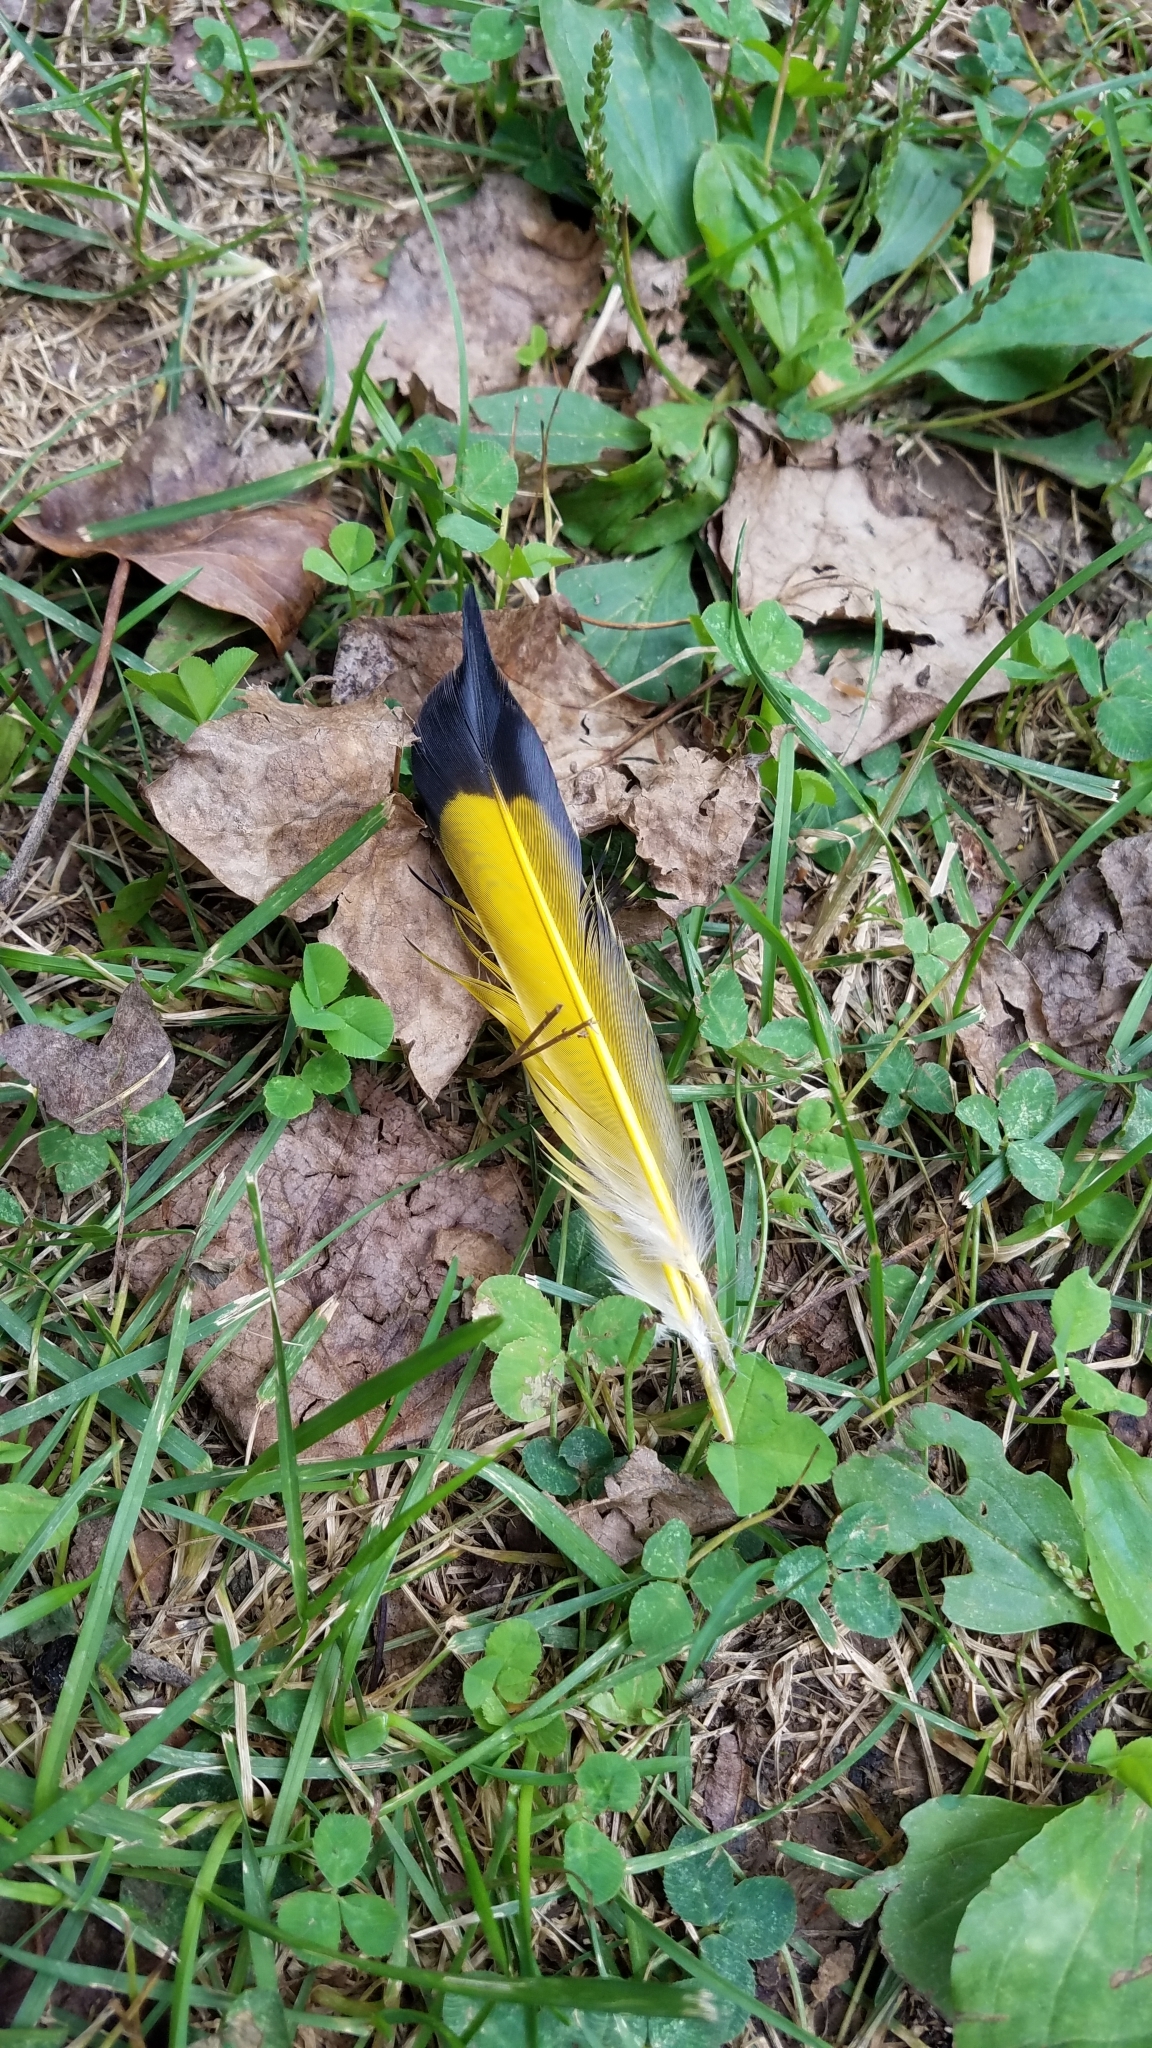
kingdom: Animalia
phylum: Chordata
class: Aves
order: Piciformes
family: Picidae
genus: Colaptes
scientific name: Colaptes auratus
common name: Northern flicker
